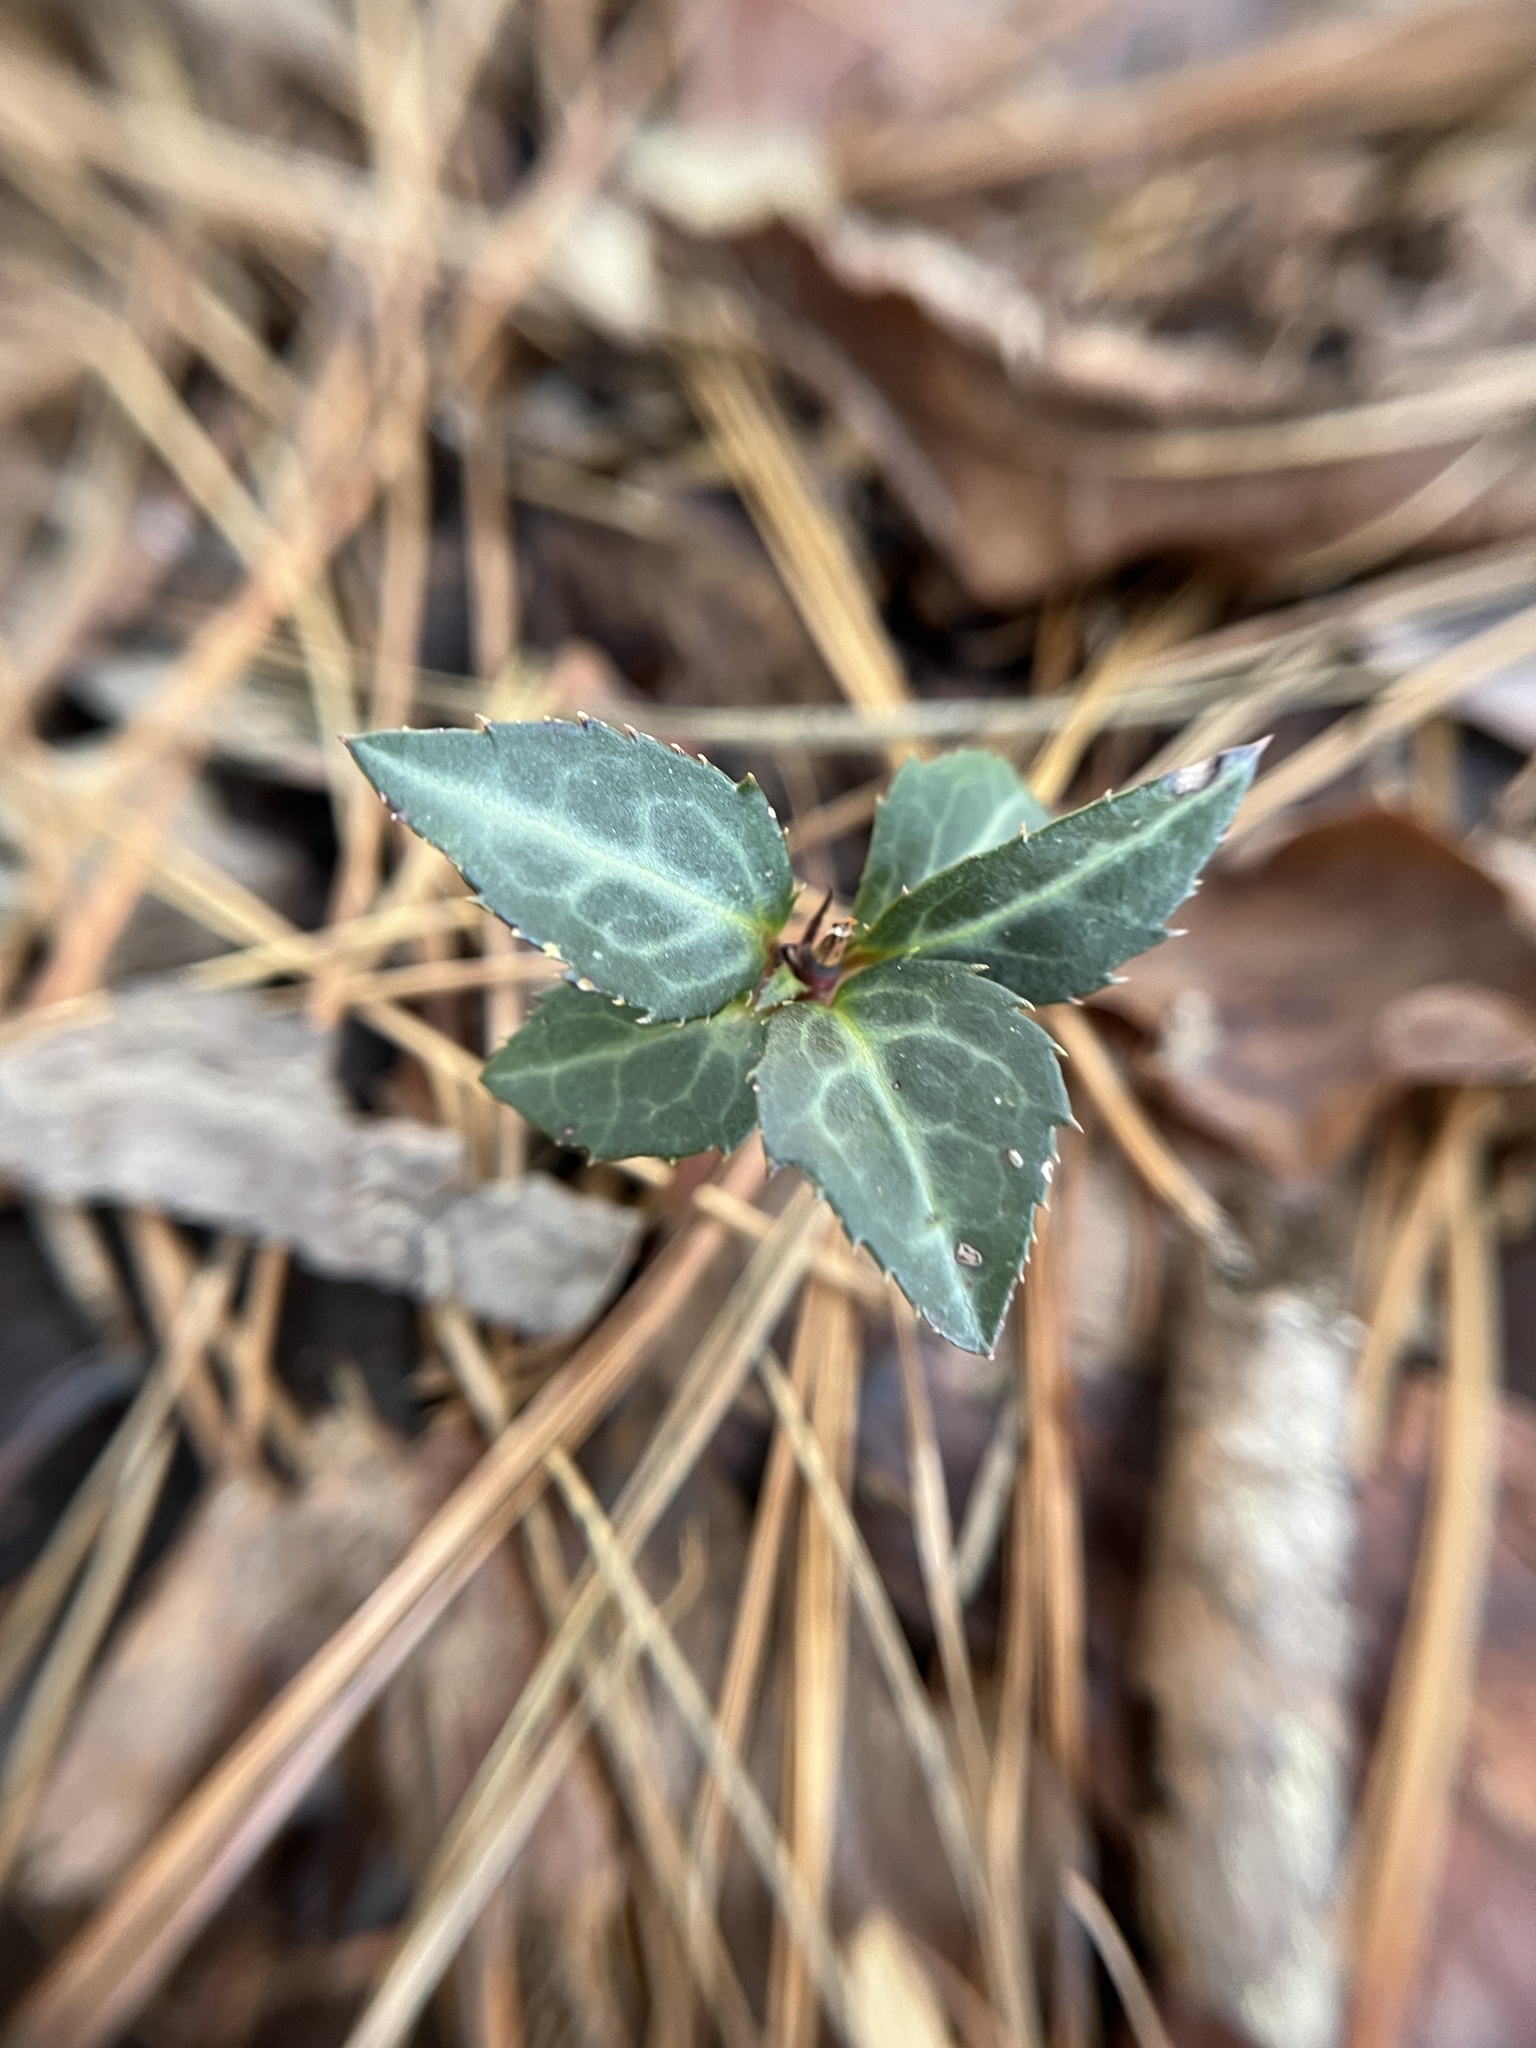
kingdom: Plantae
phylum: Tracheophyta
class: Magnoliopsida
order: Ericales
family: Ericaceae
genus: Chimaphila
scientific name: Chimaphila maculata
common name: Spotted pipsissewa
